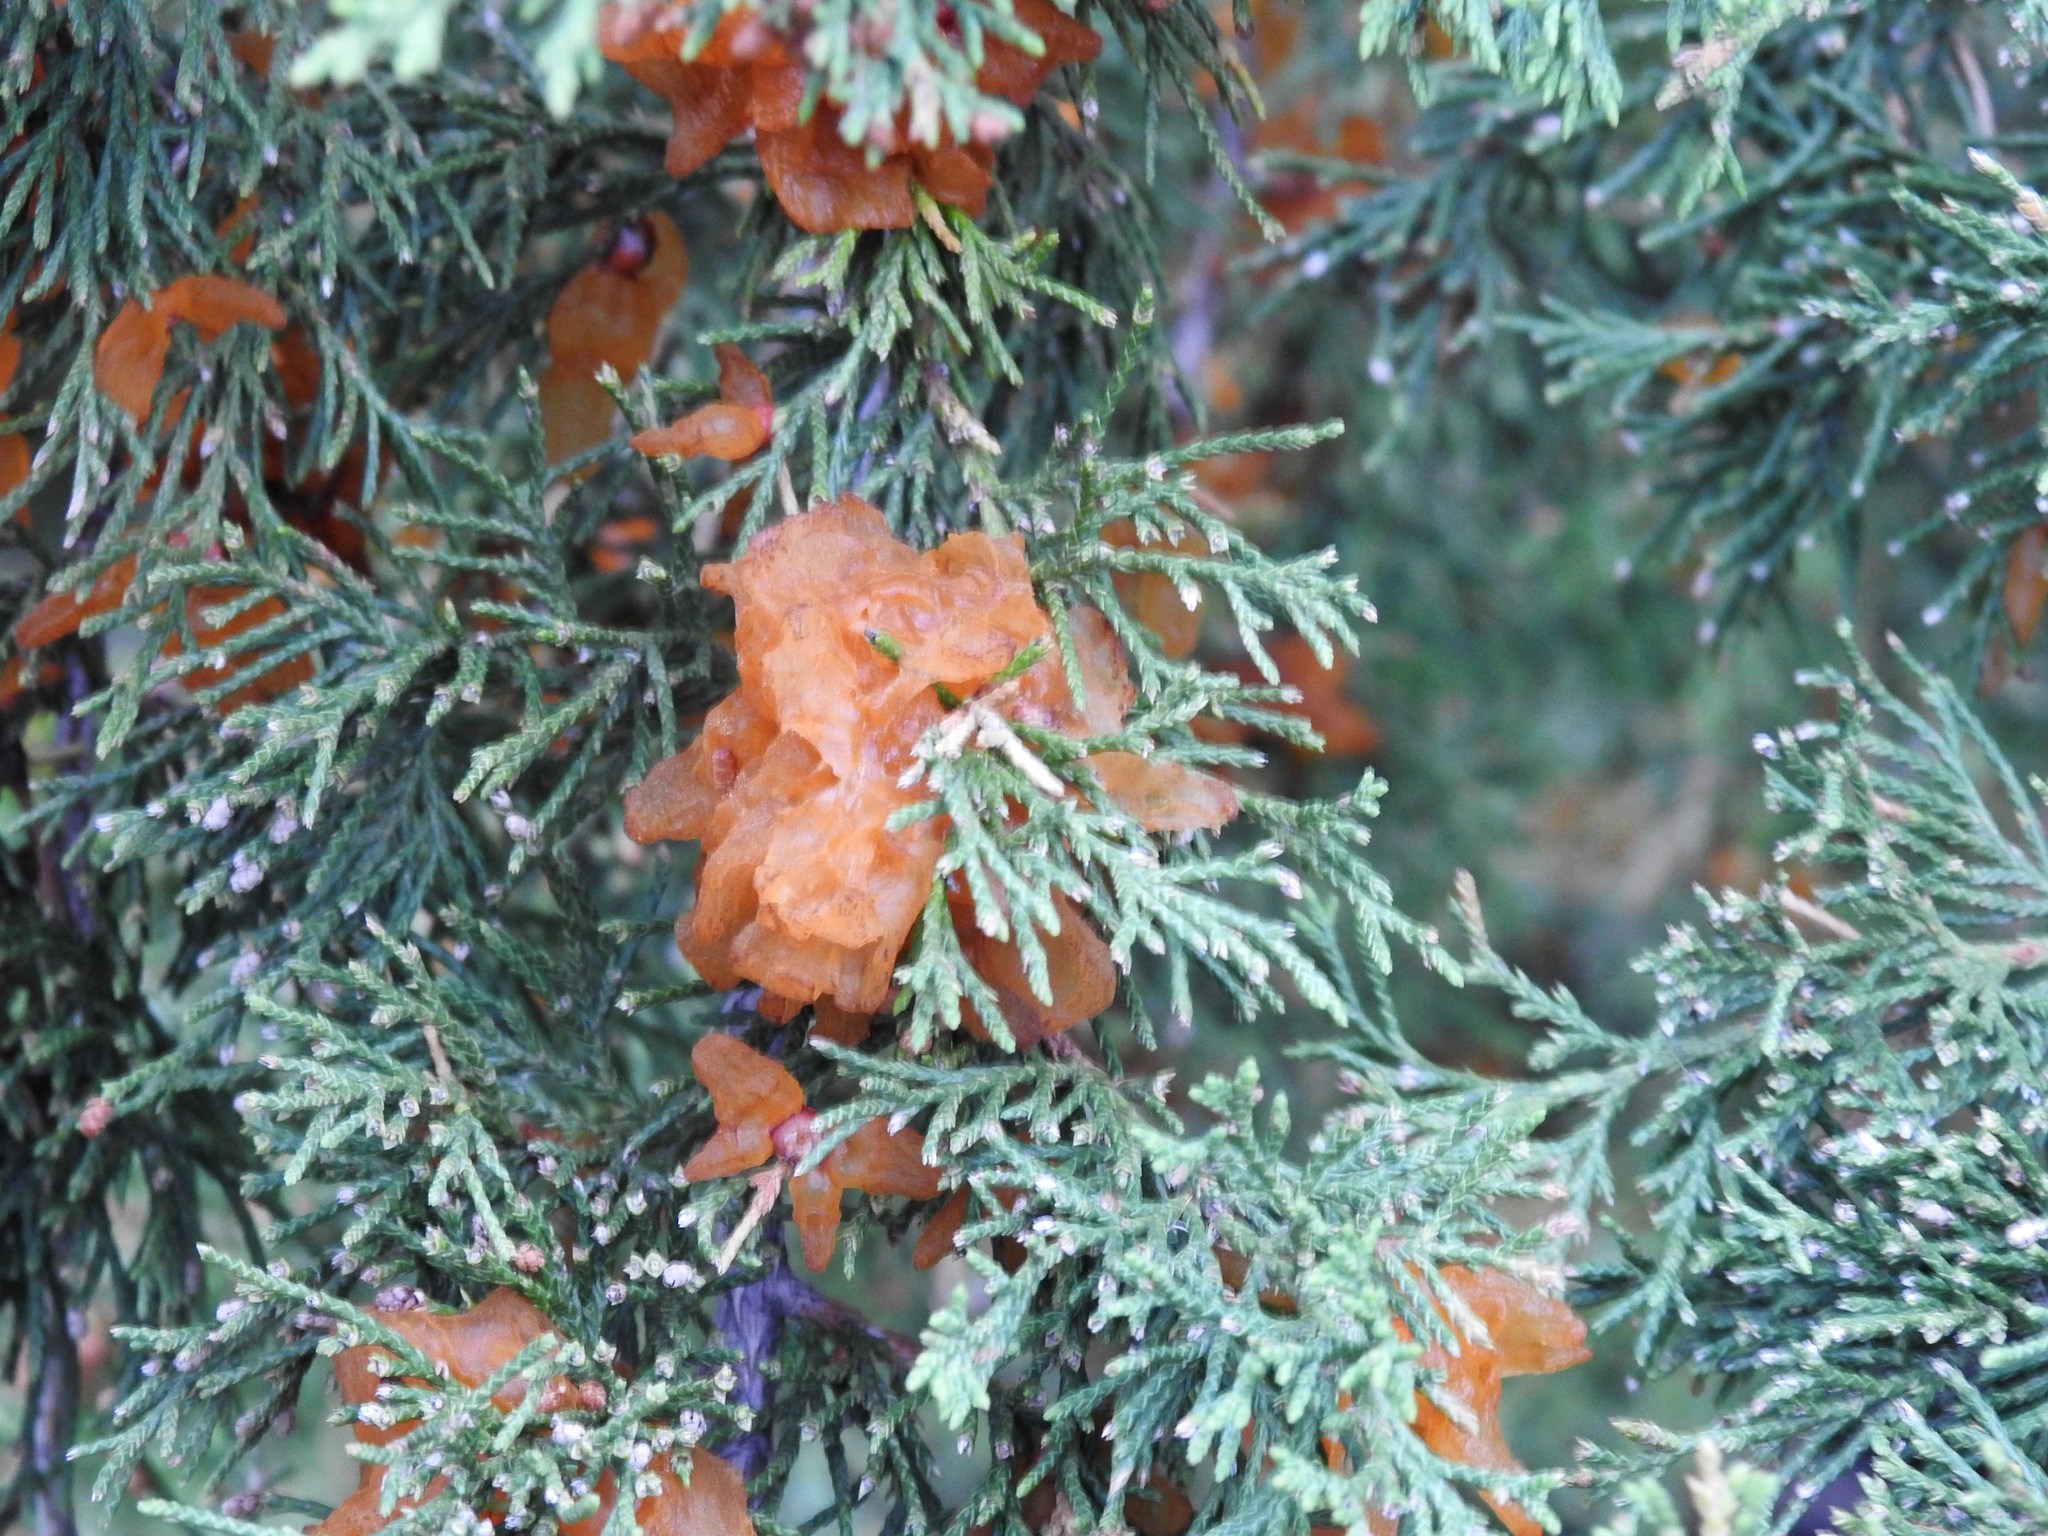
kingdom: Fungi
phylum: Basidiomycota
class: Pucciniomycetes
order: Pucciniales
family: Gymnosporangiaceae
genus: Gymnosporangium
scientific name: Gymnosporangium juniperi-virginianae
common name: Juniper-apple rust
